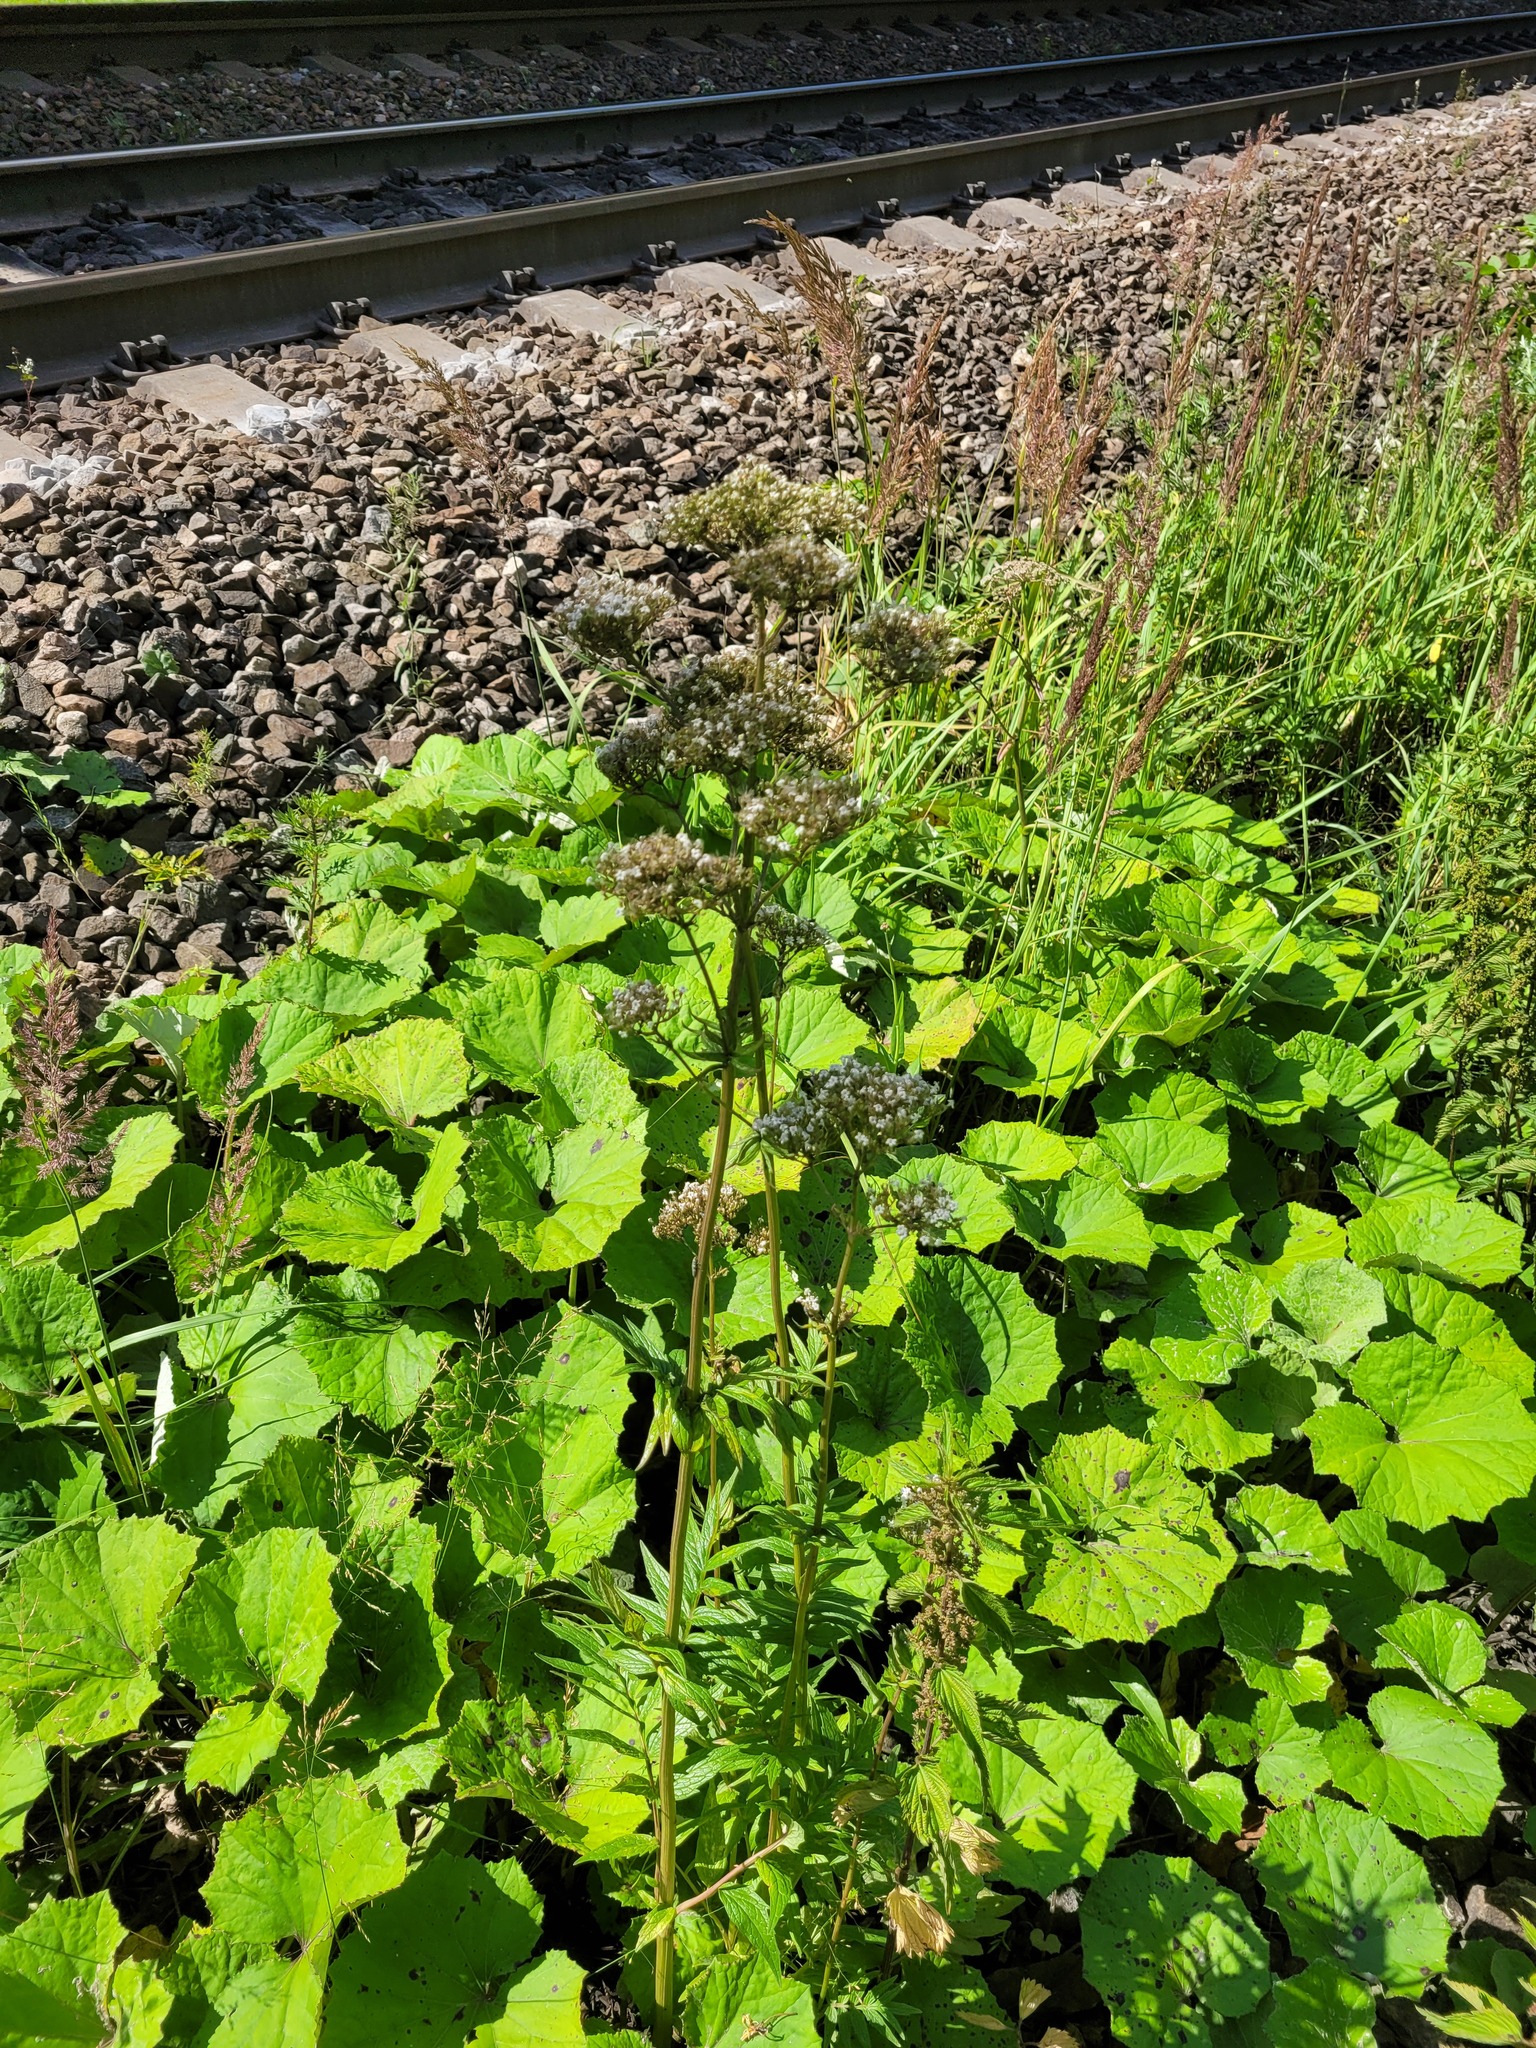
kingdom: Plantae
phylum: Tracheophyta
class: Magnoliopsida
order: Dipsacales
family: Caprifoliaceae
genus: Valeriana
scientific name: Valeriana officinalis
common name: Common valerian
